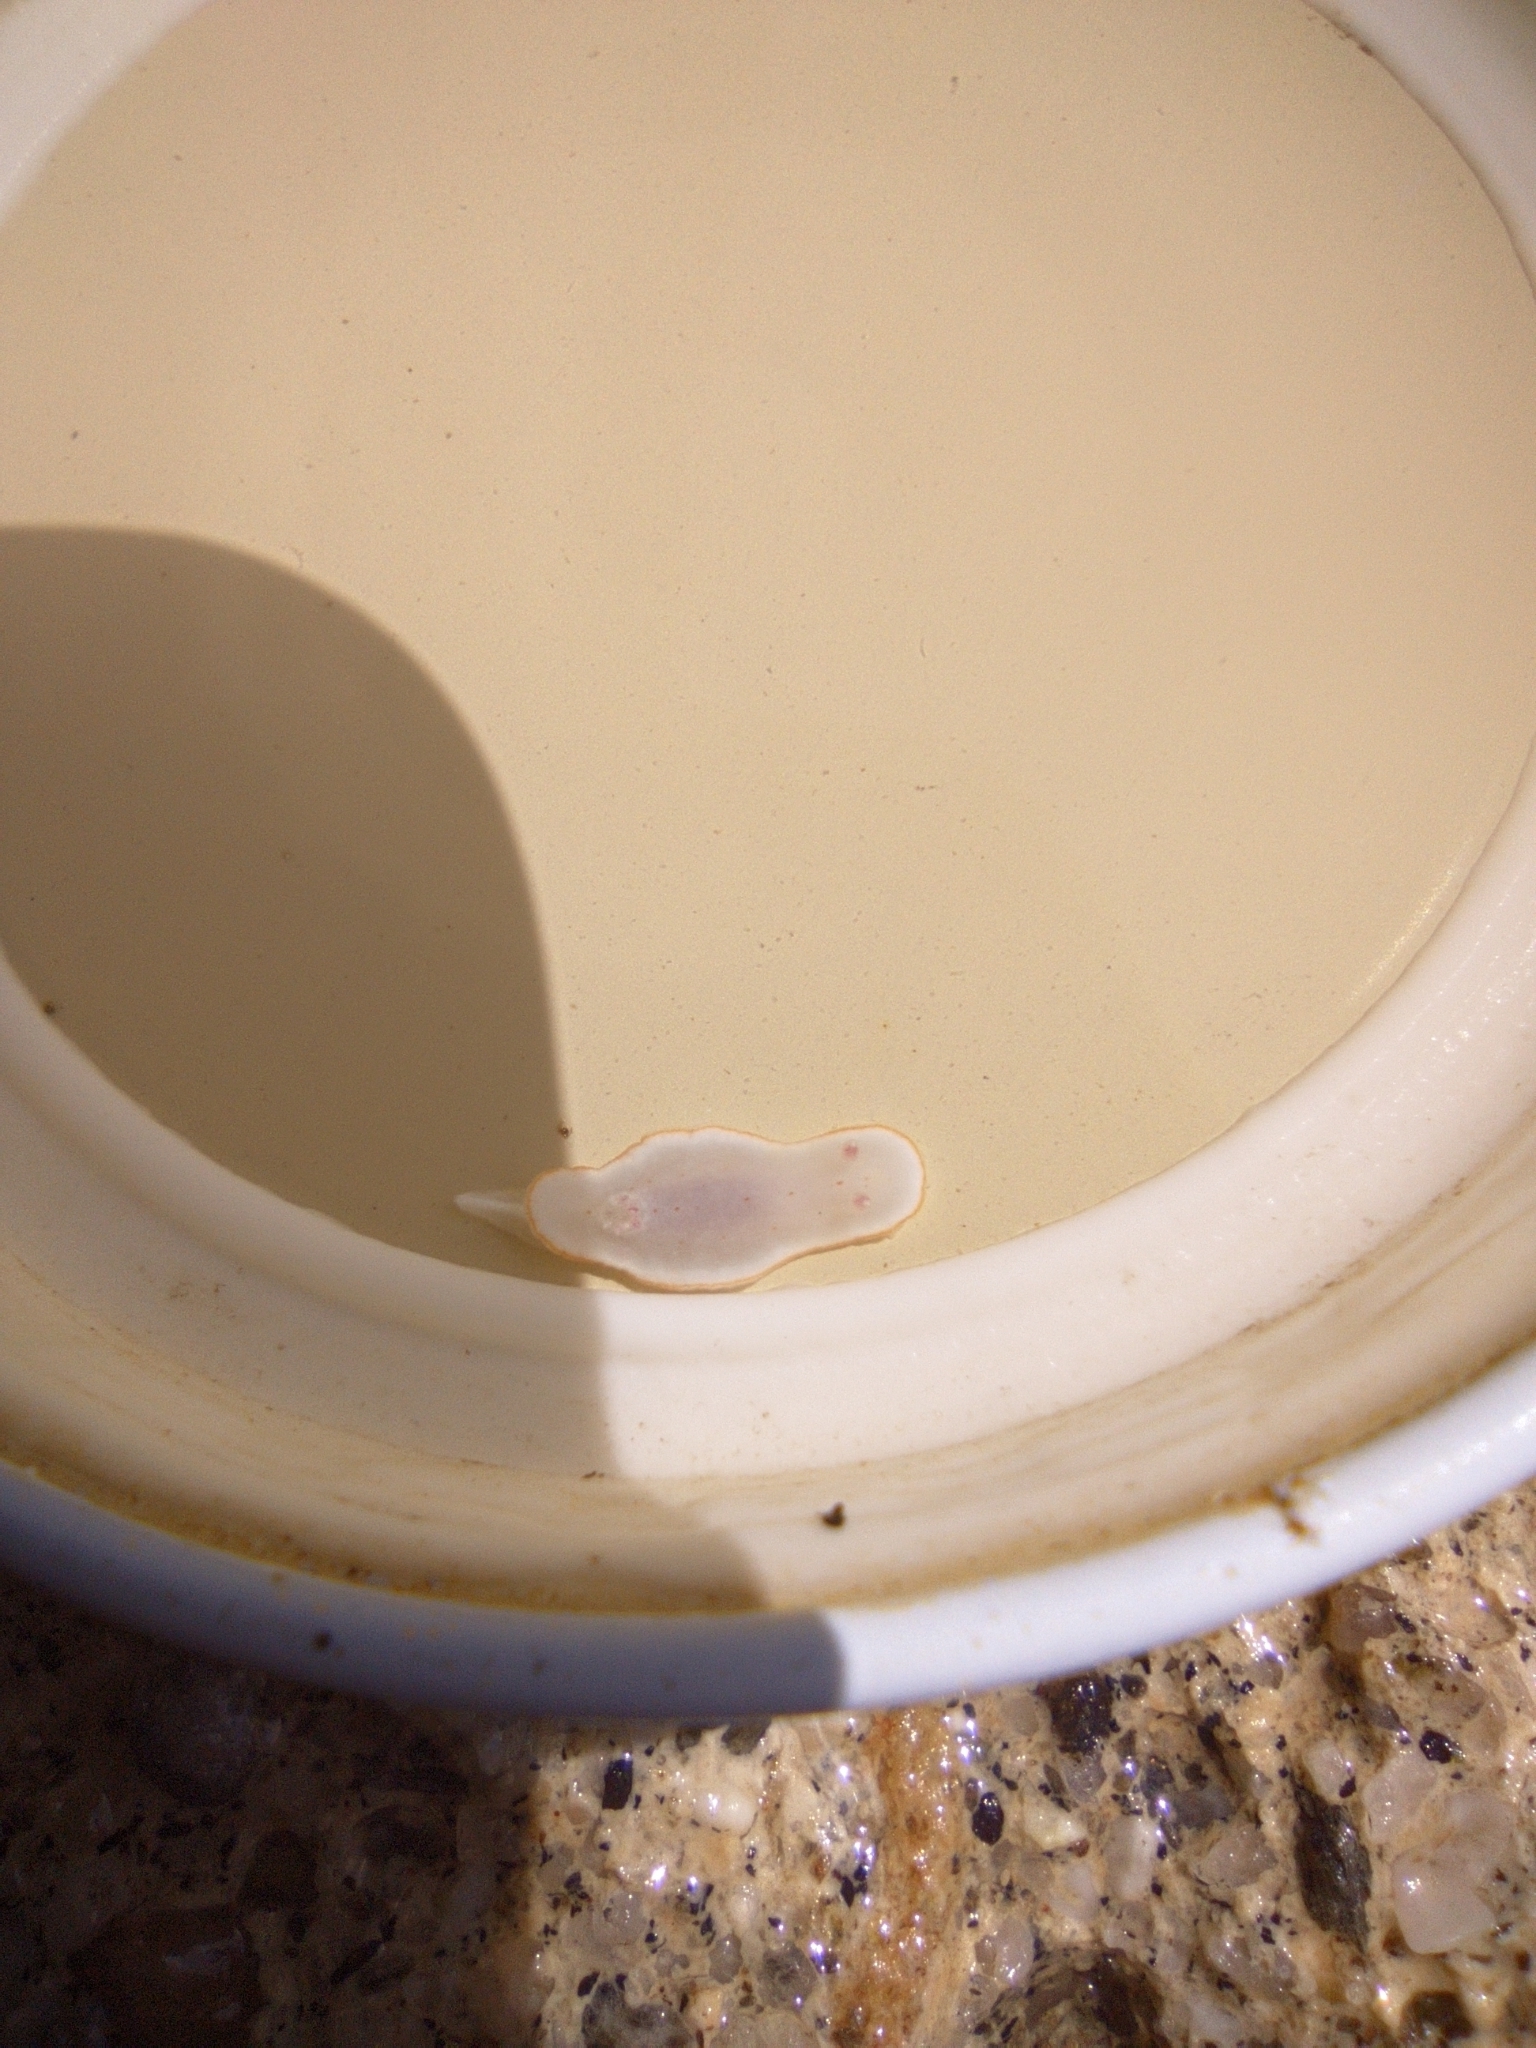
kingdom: Animalia
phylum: Mollusca
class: Gastropoda
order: Nudibranchia
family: Chromodorididae
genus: Felimida
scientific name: Felimida grahami
